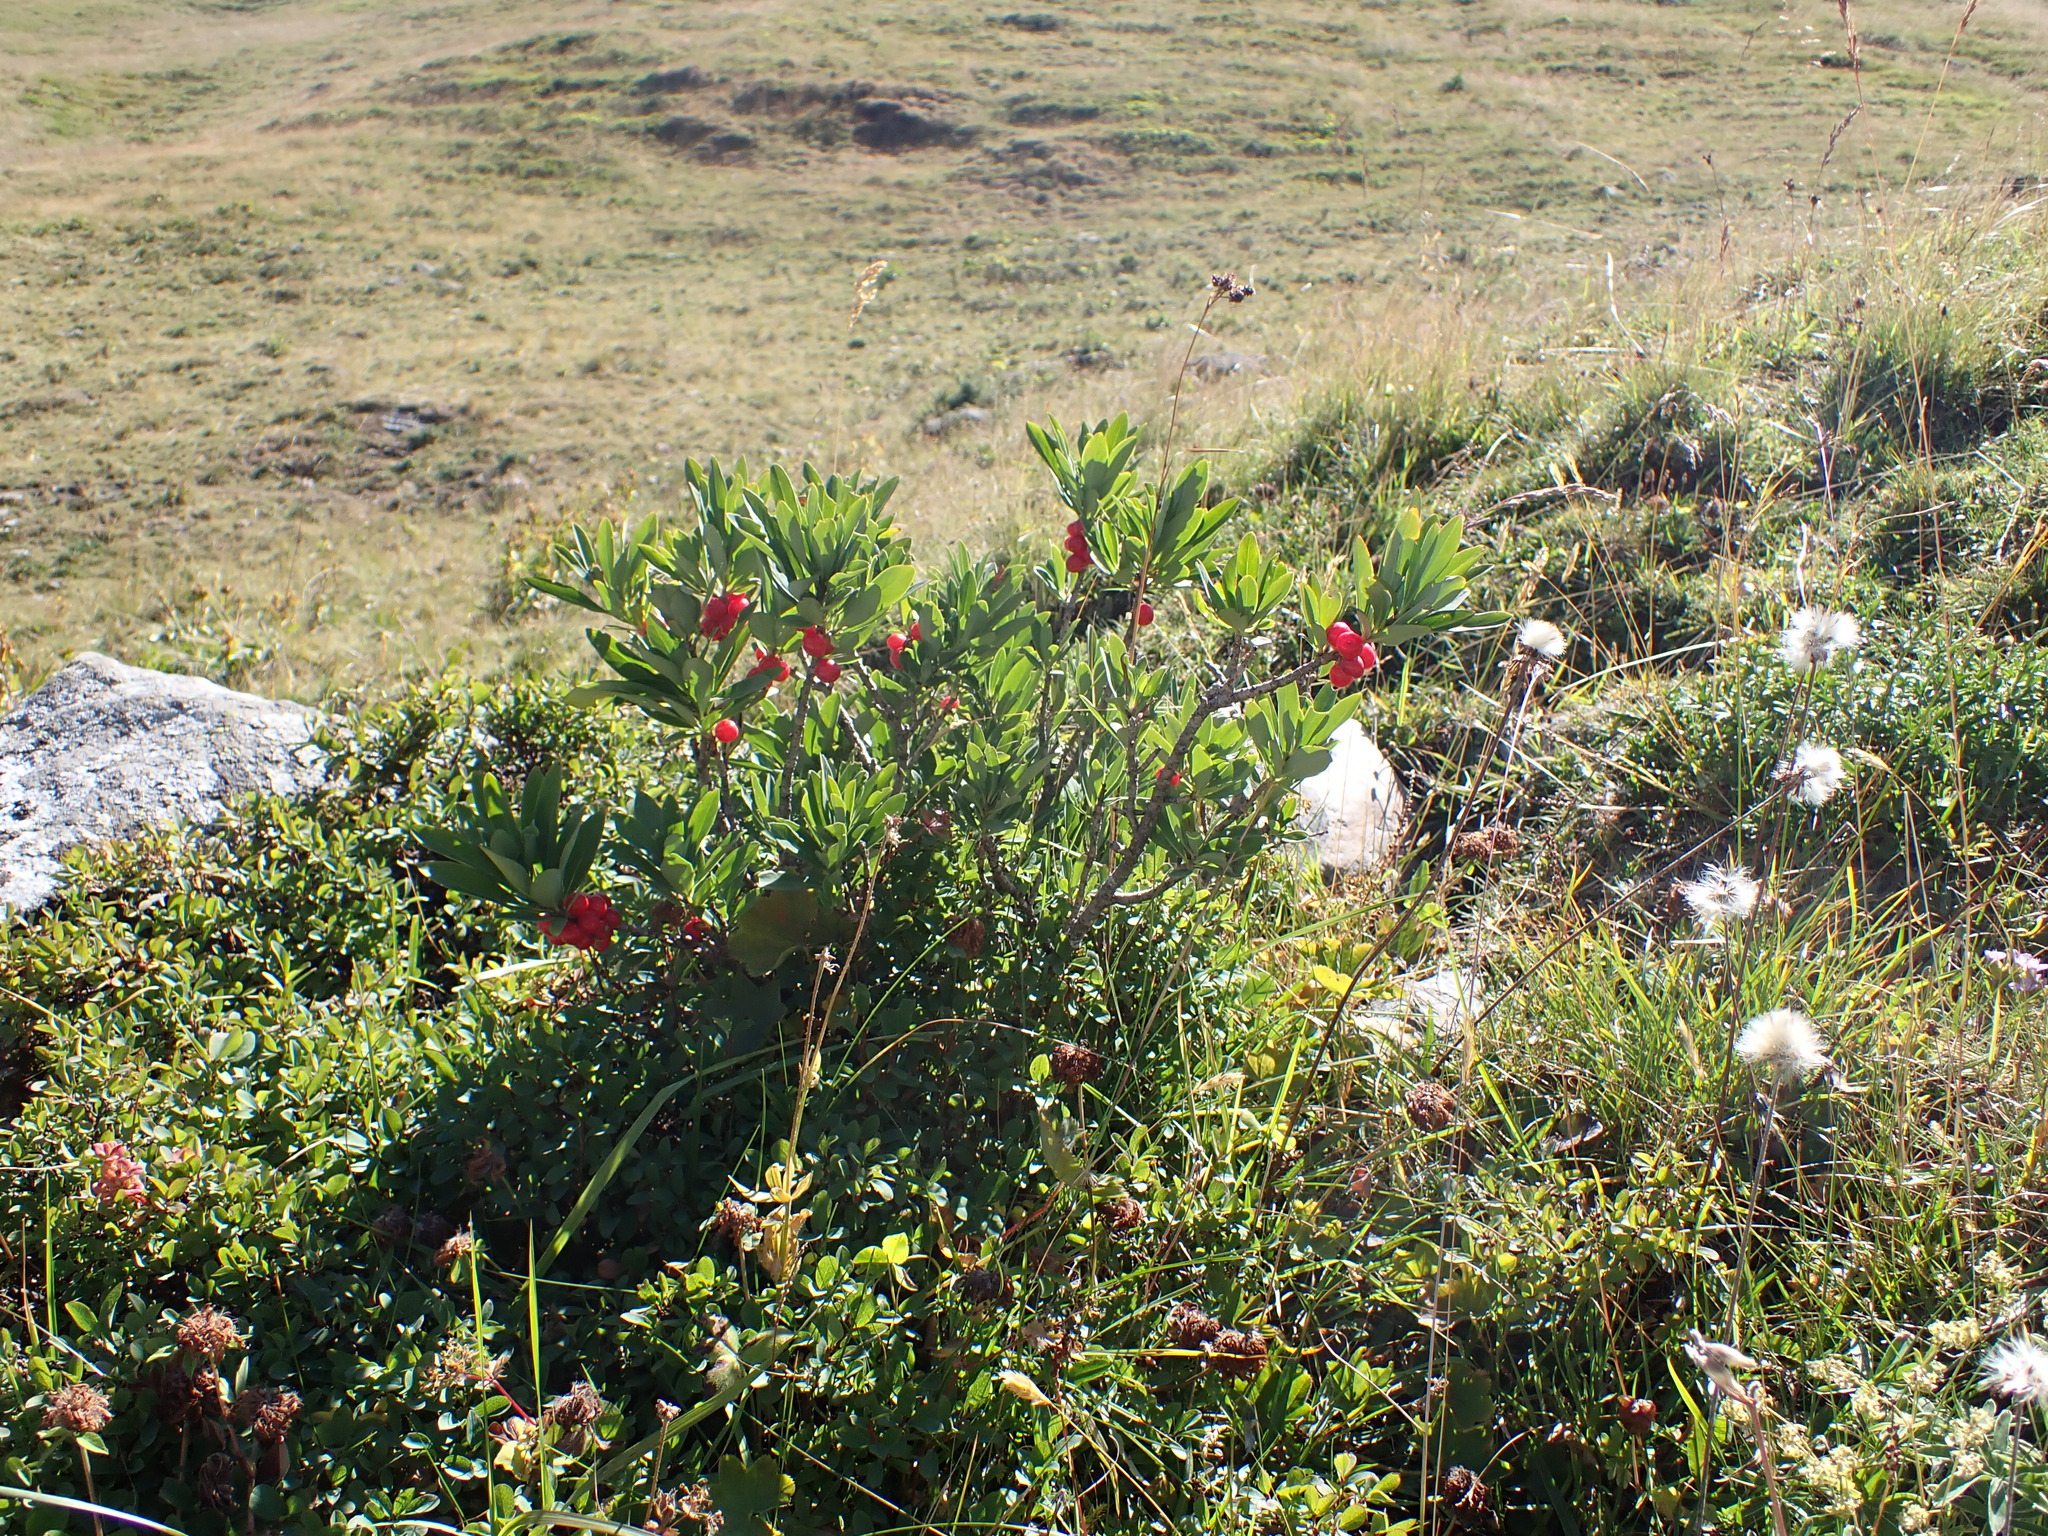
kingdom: Plantae
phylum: Tracheophyta
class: Magnoliopsida
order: Malvales
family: Thymelaeaceae
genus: Daphne
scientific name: Daphne mezereum
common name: Mezereon
